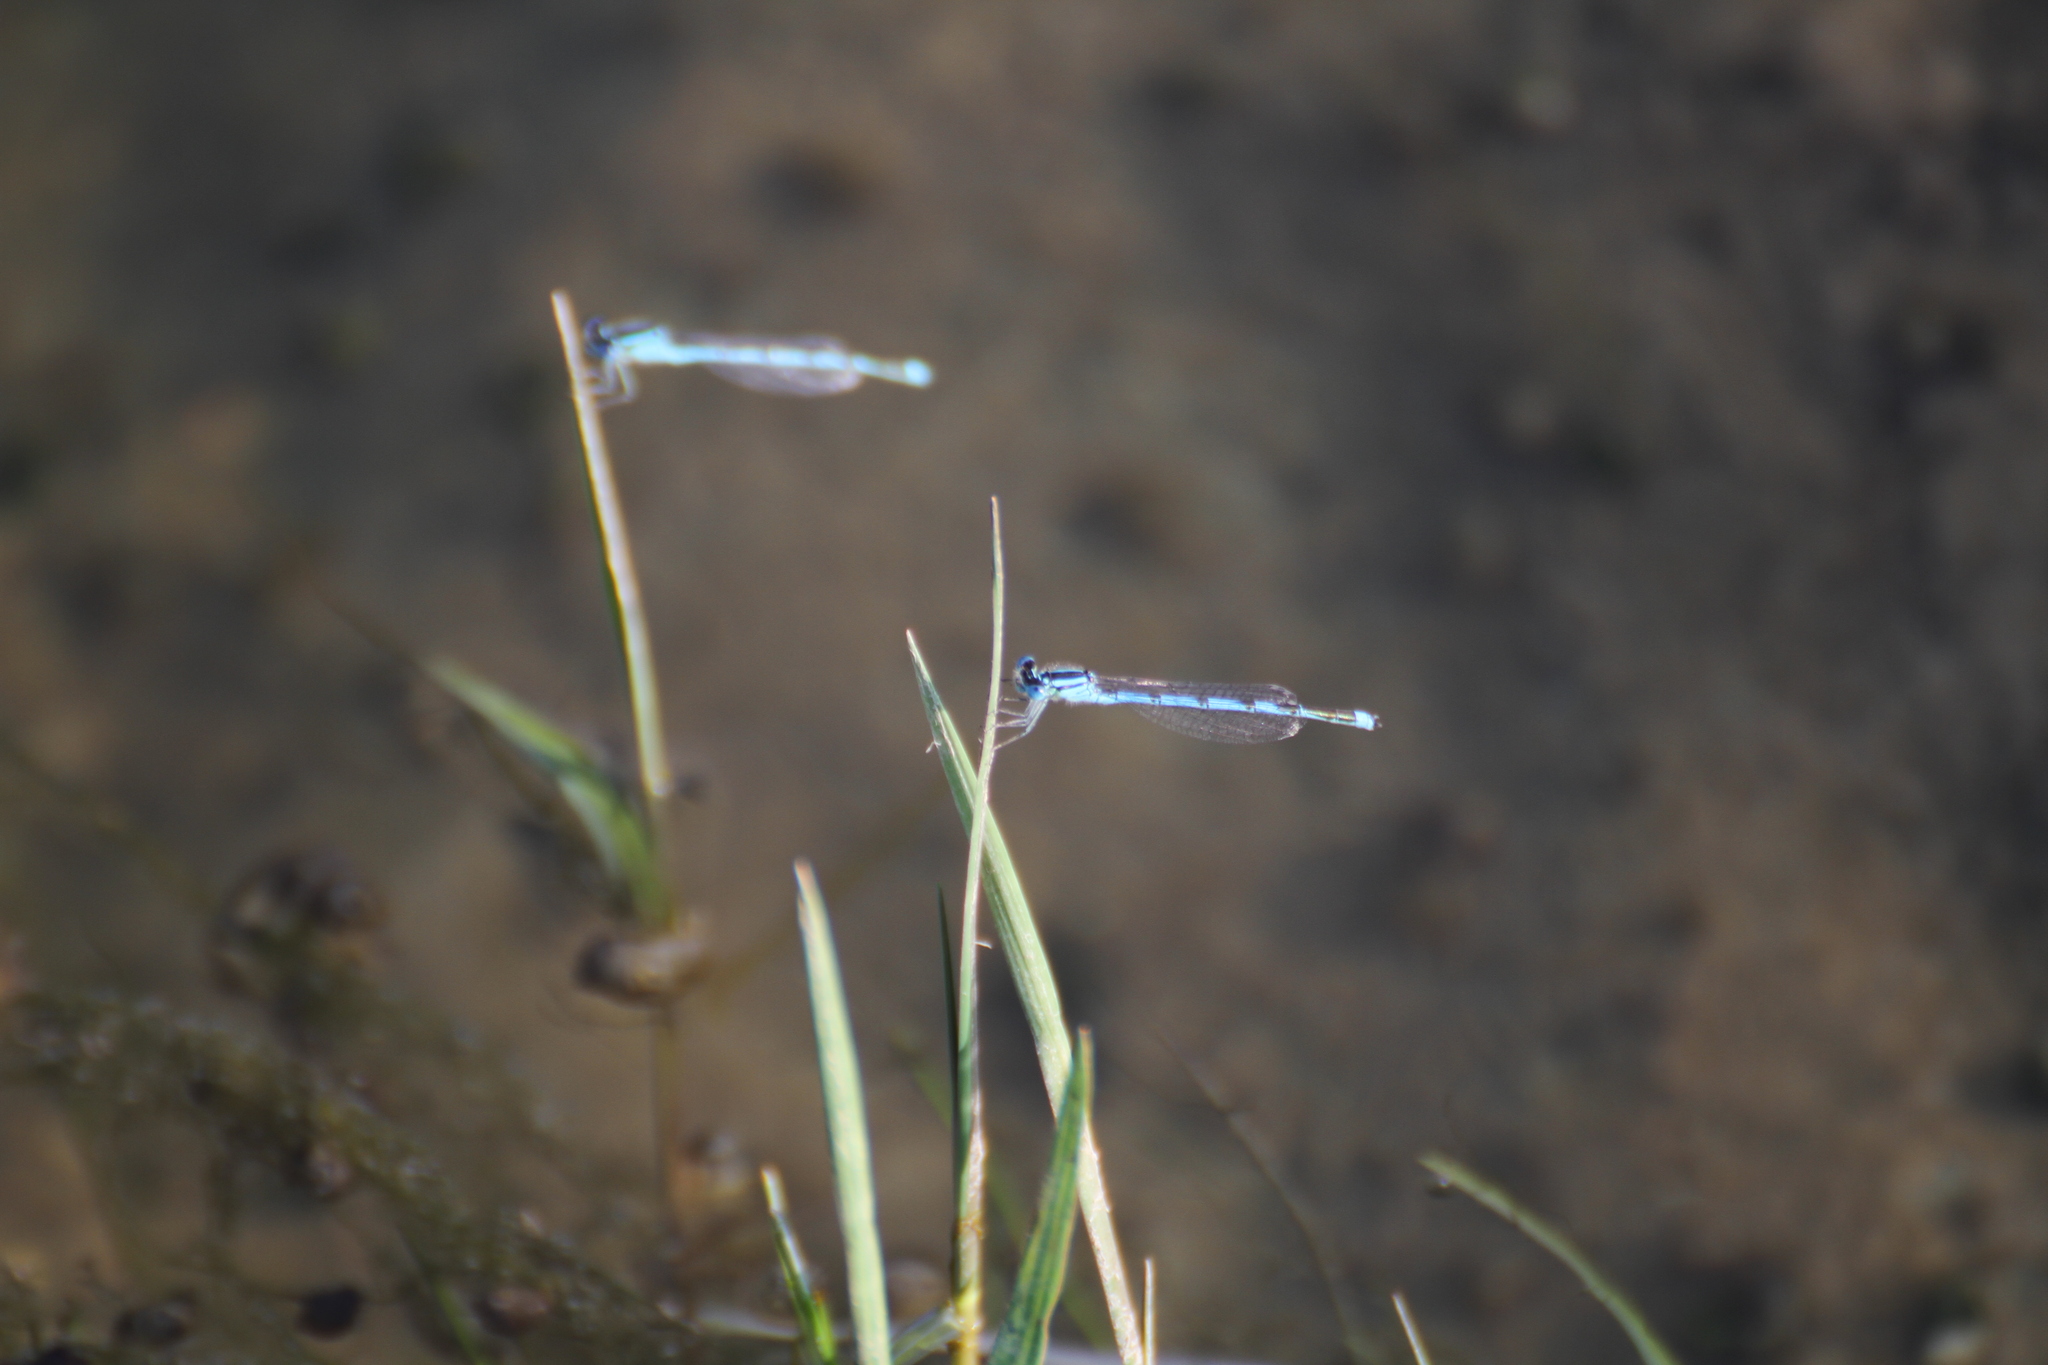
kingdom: Animalia
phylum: Arthropoda
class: Insecta
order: Odonata
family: Coenagrionidae
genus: Erythromma
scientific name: Erythromma lindenii
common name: Blue-eye
